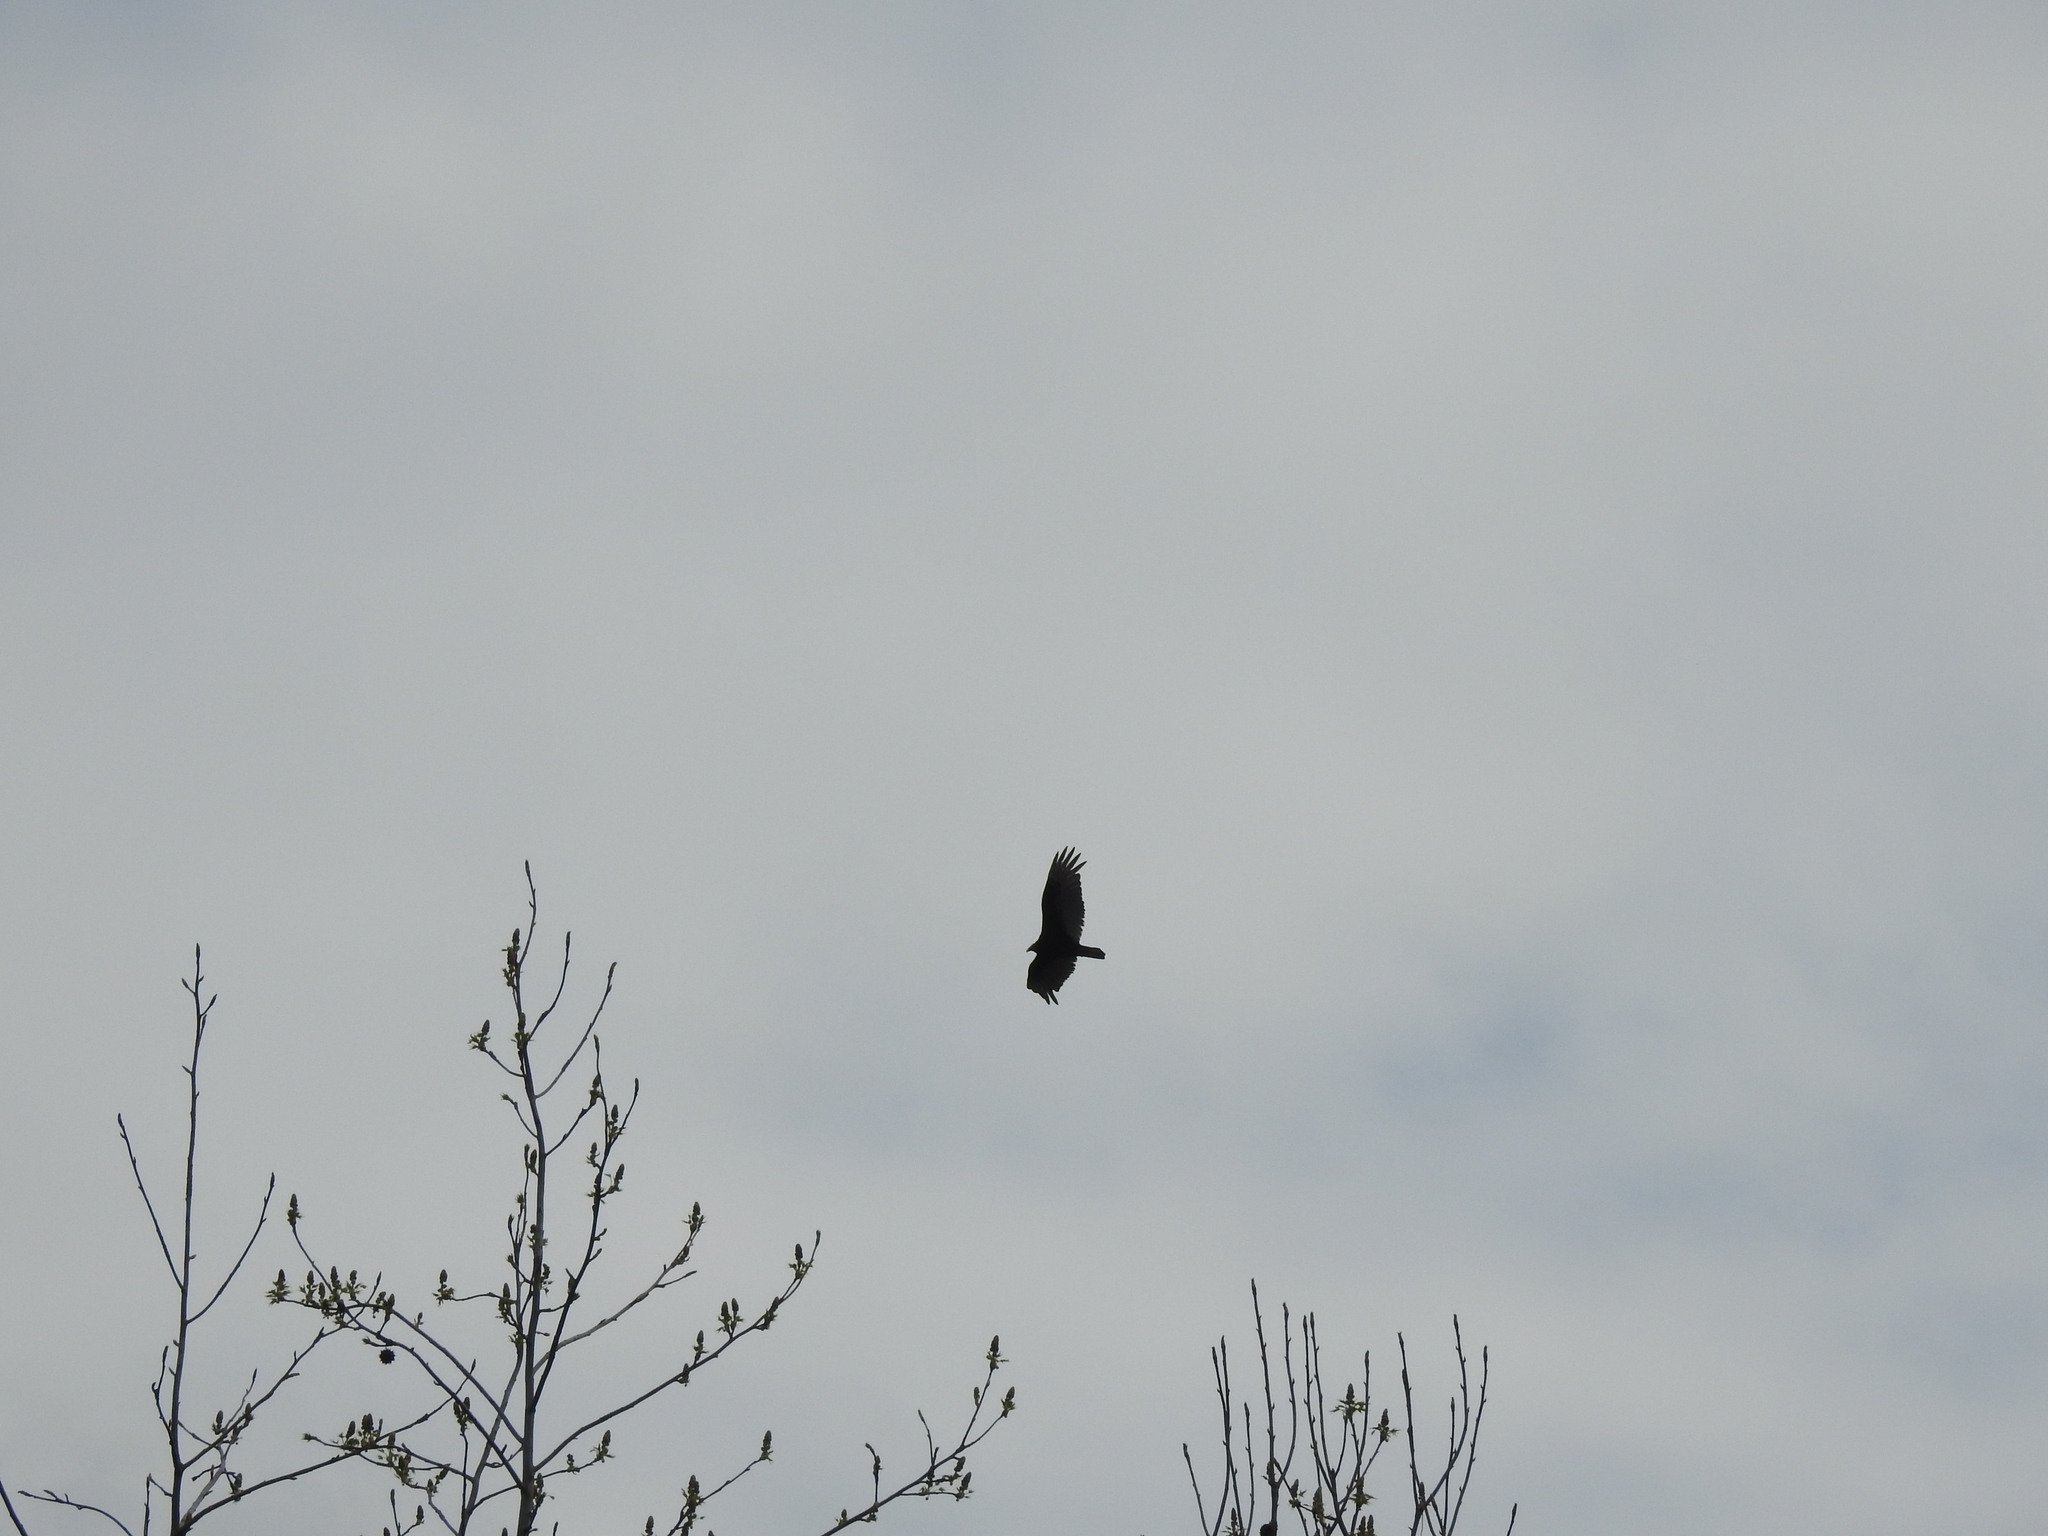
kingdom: Animalia
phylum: Chordata
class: Aves
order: Accipitriformes
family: Cathartidae
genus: Cathartes
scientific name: Cathartes aura
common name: Turkey vulture
